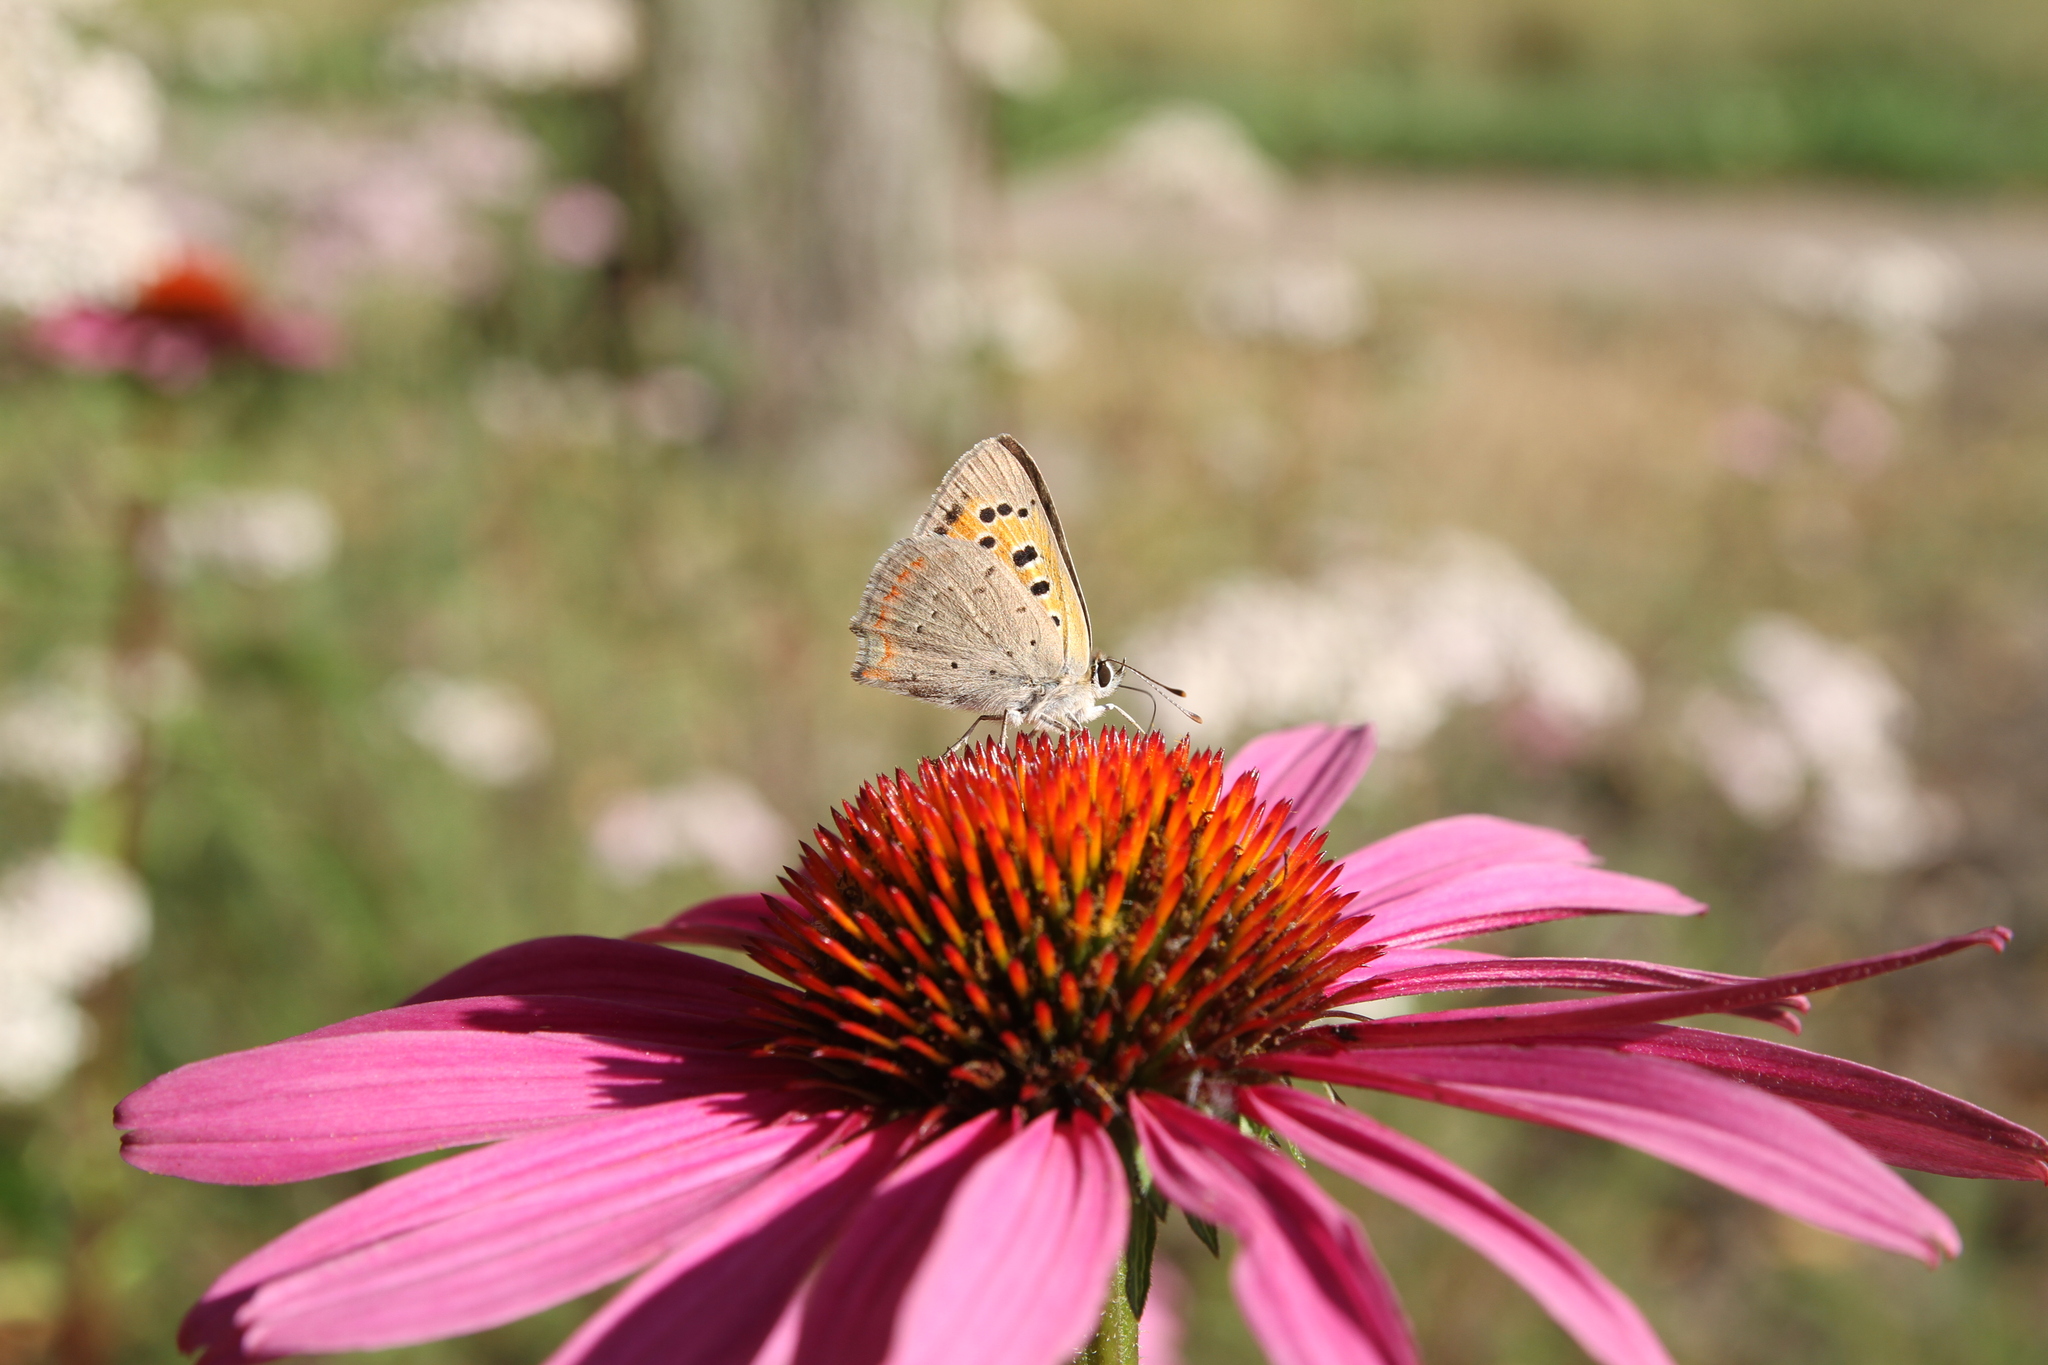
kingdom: Animalia
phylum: Arthropoda
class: Insecta
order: Lepidoptera
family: Lycaenidae
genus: Lycaena
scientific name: Lycaena phlaeas
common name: Small copper
